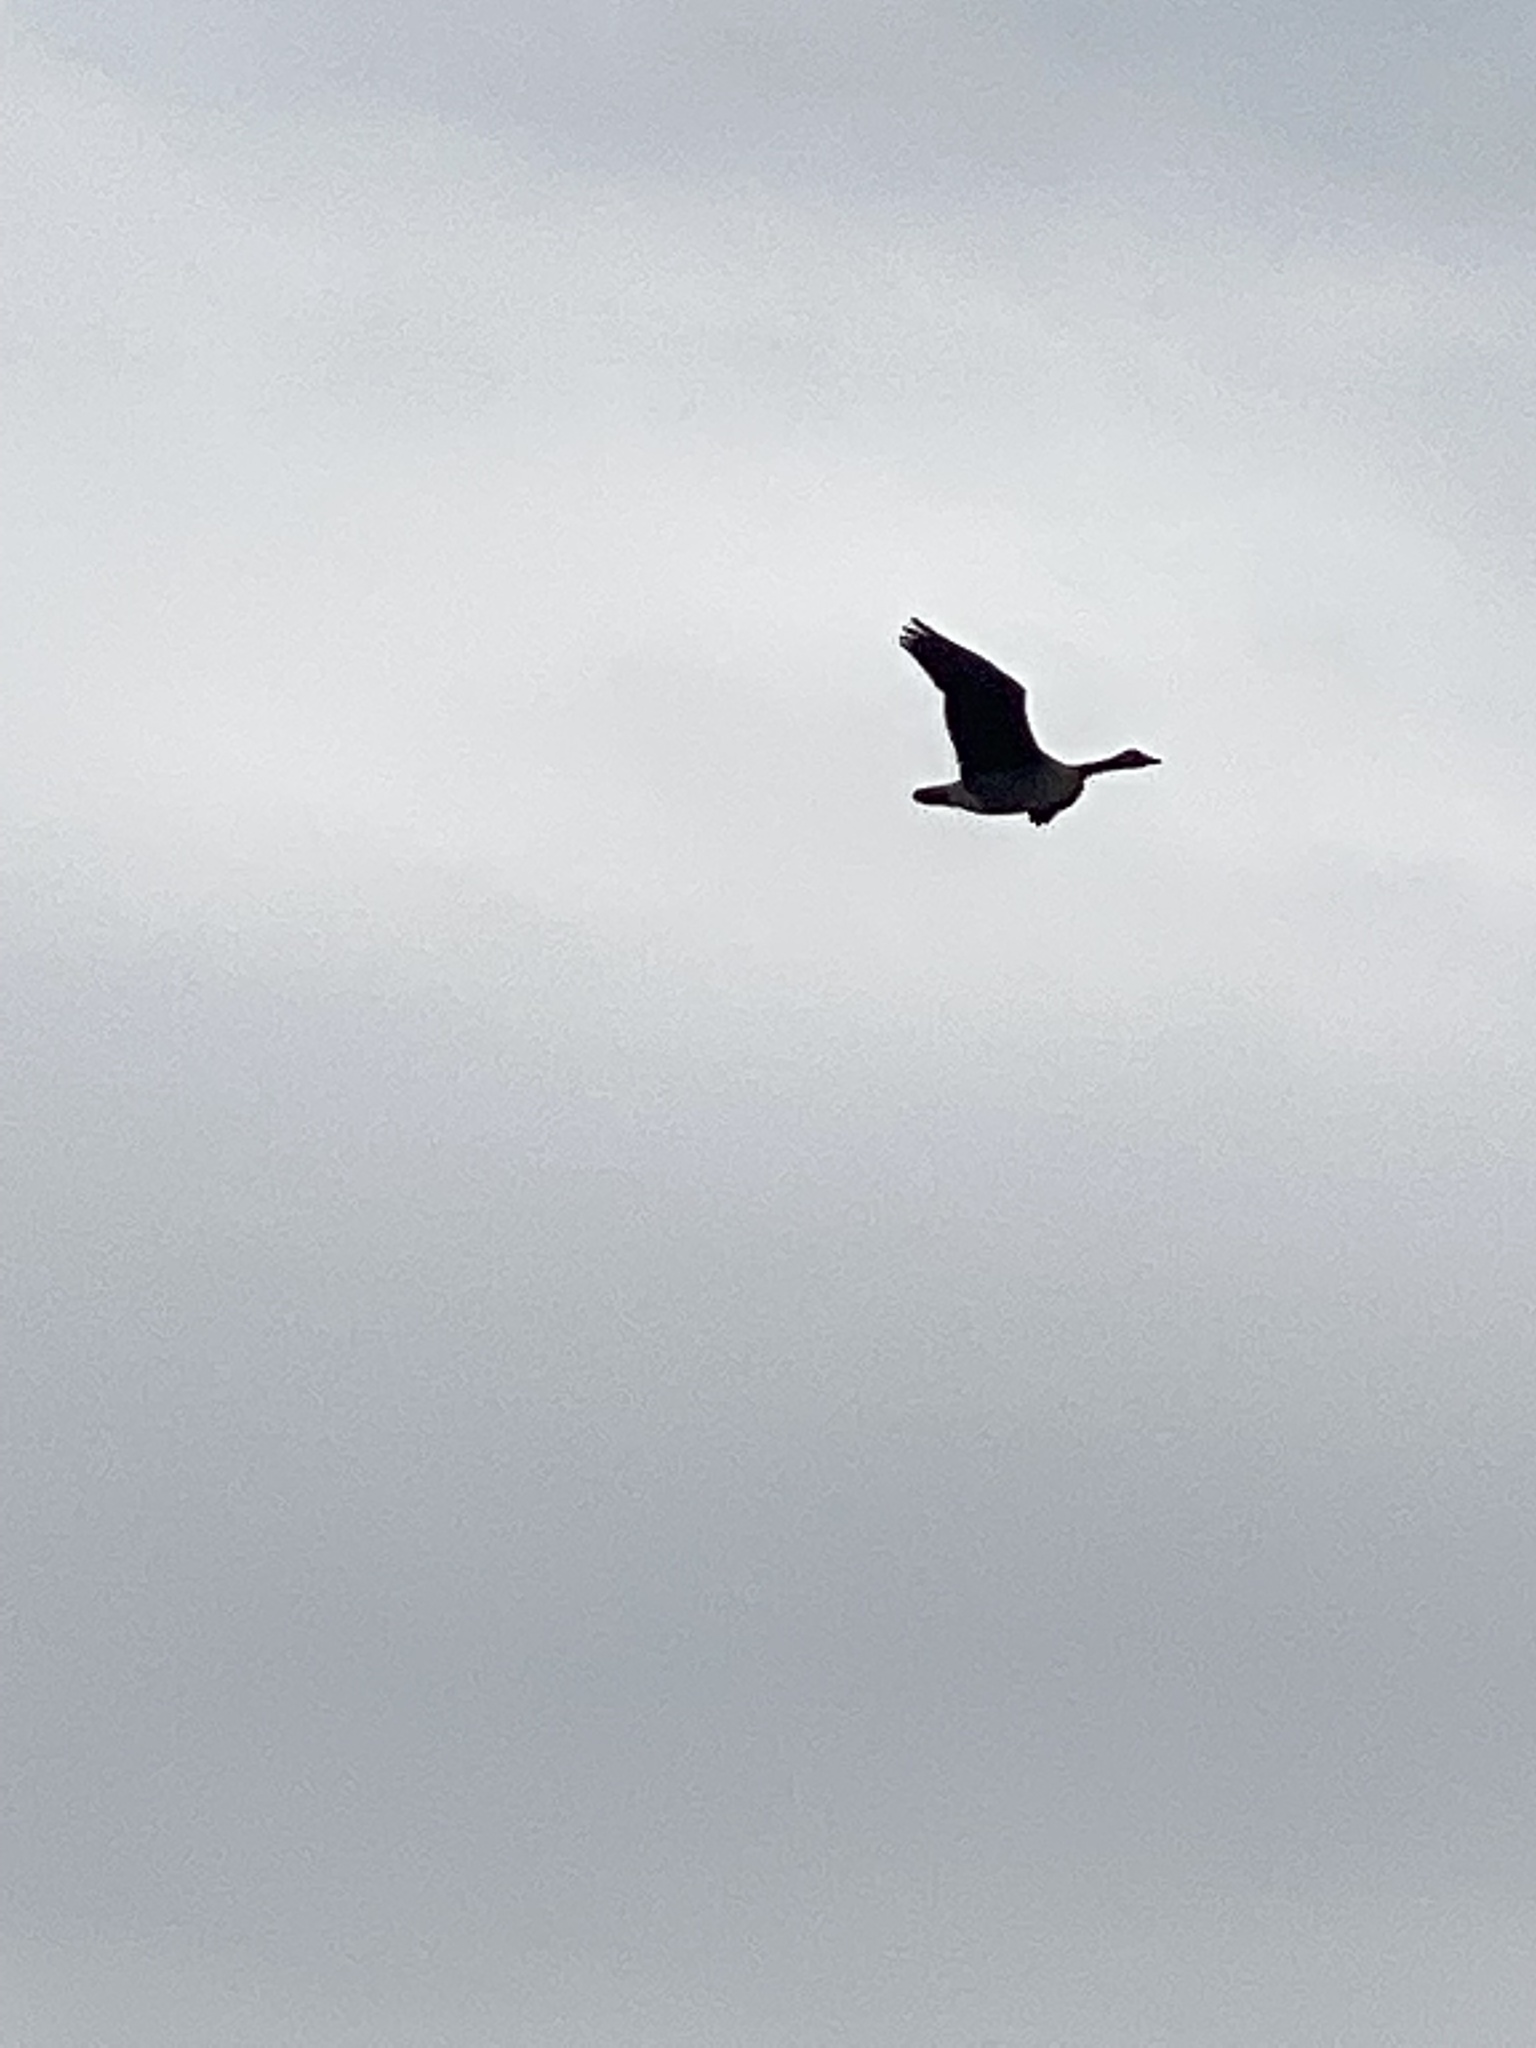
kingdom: Animalia
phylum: Chordata
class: Aves
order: Anseriformes
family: Anatidae
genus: Branta
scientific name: Branta canadensis
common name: Canada goose
